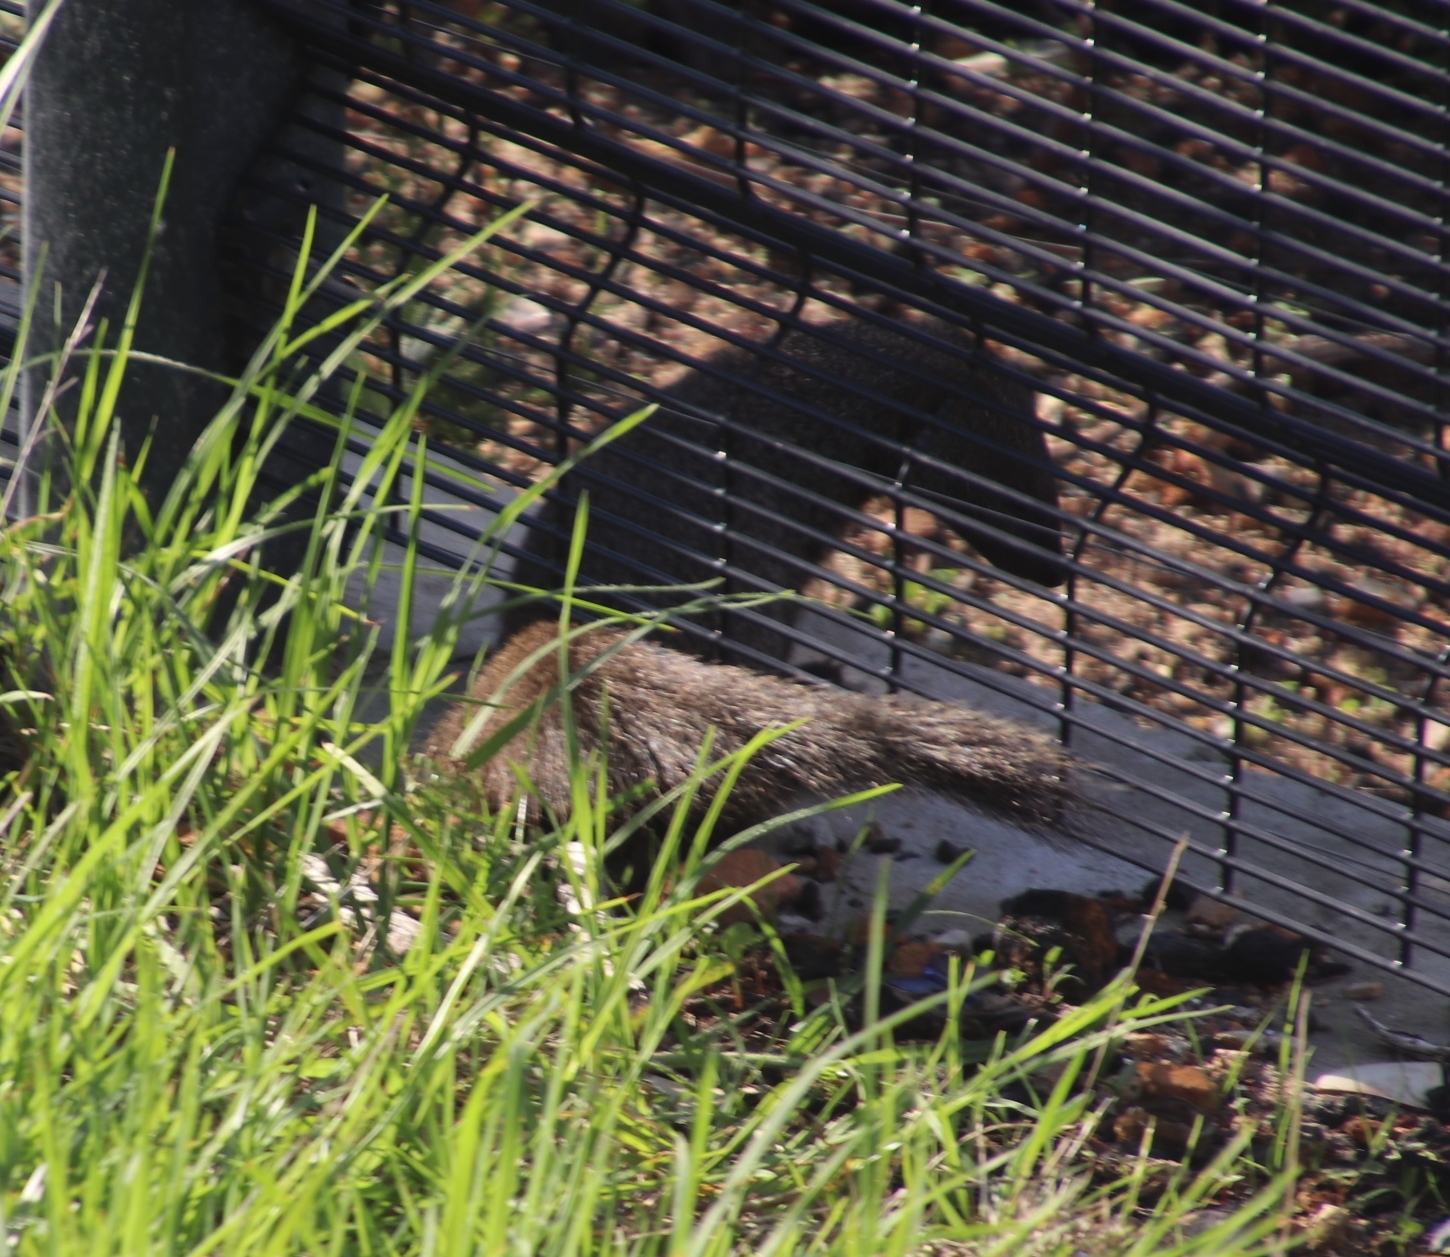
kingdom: Animalia
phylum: Chordata
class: Mammalia
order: Carnivora
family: Herpestidae
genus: Galerella
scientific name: Galerella pulverulenta
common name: Cape gray mongoose
